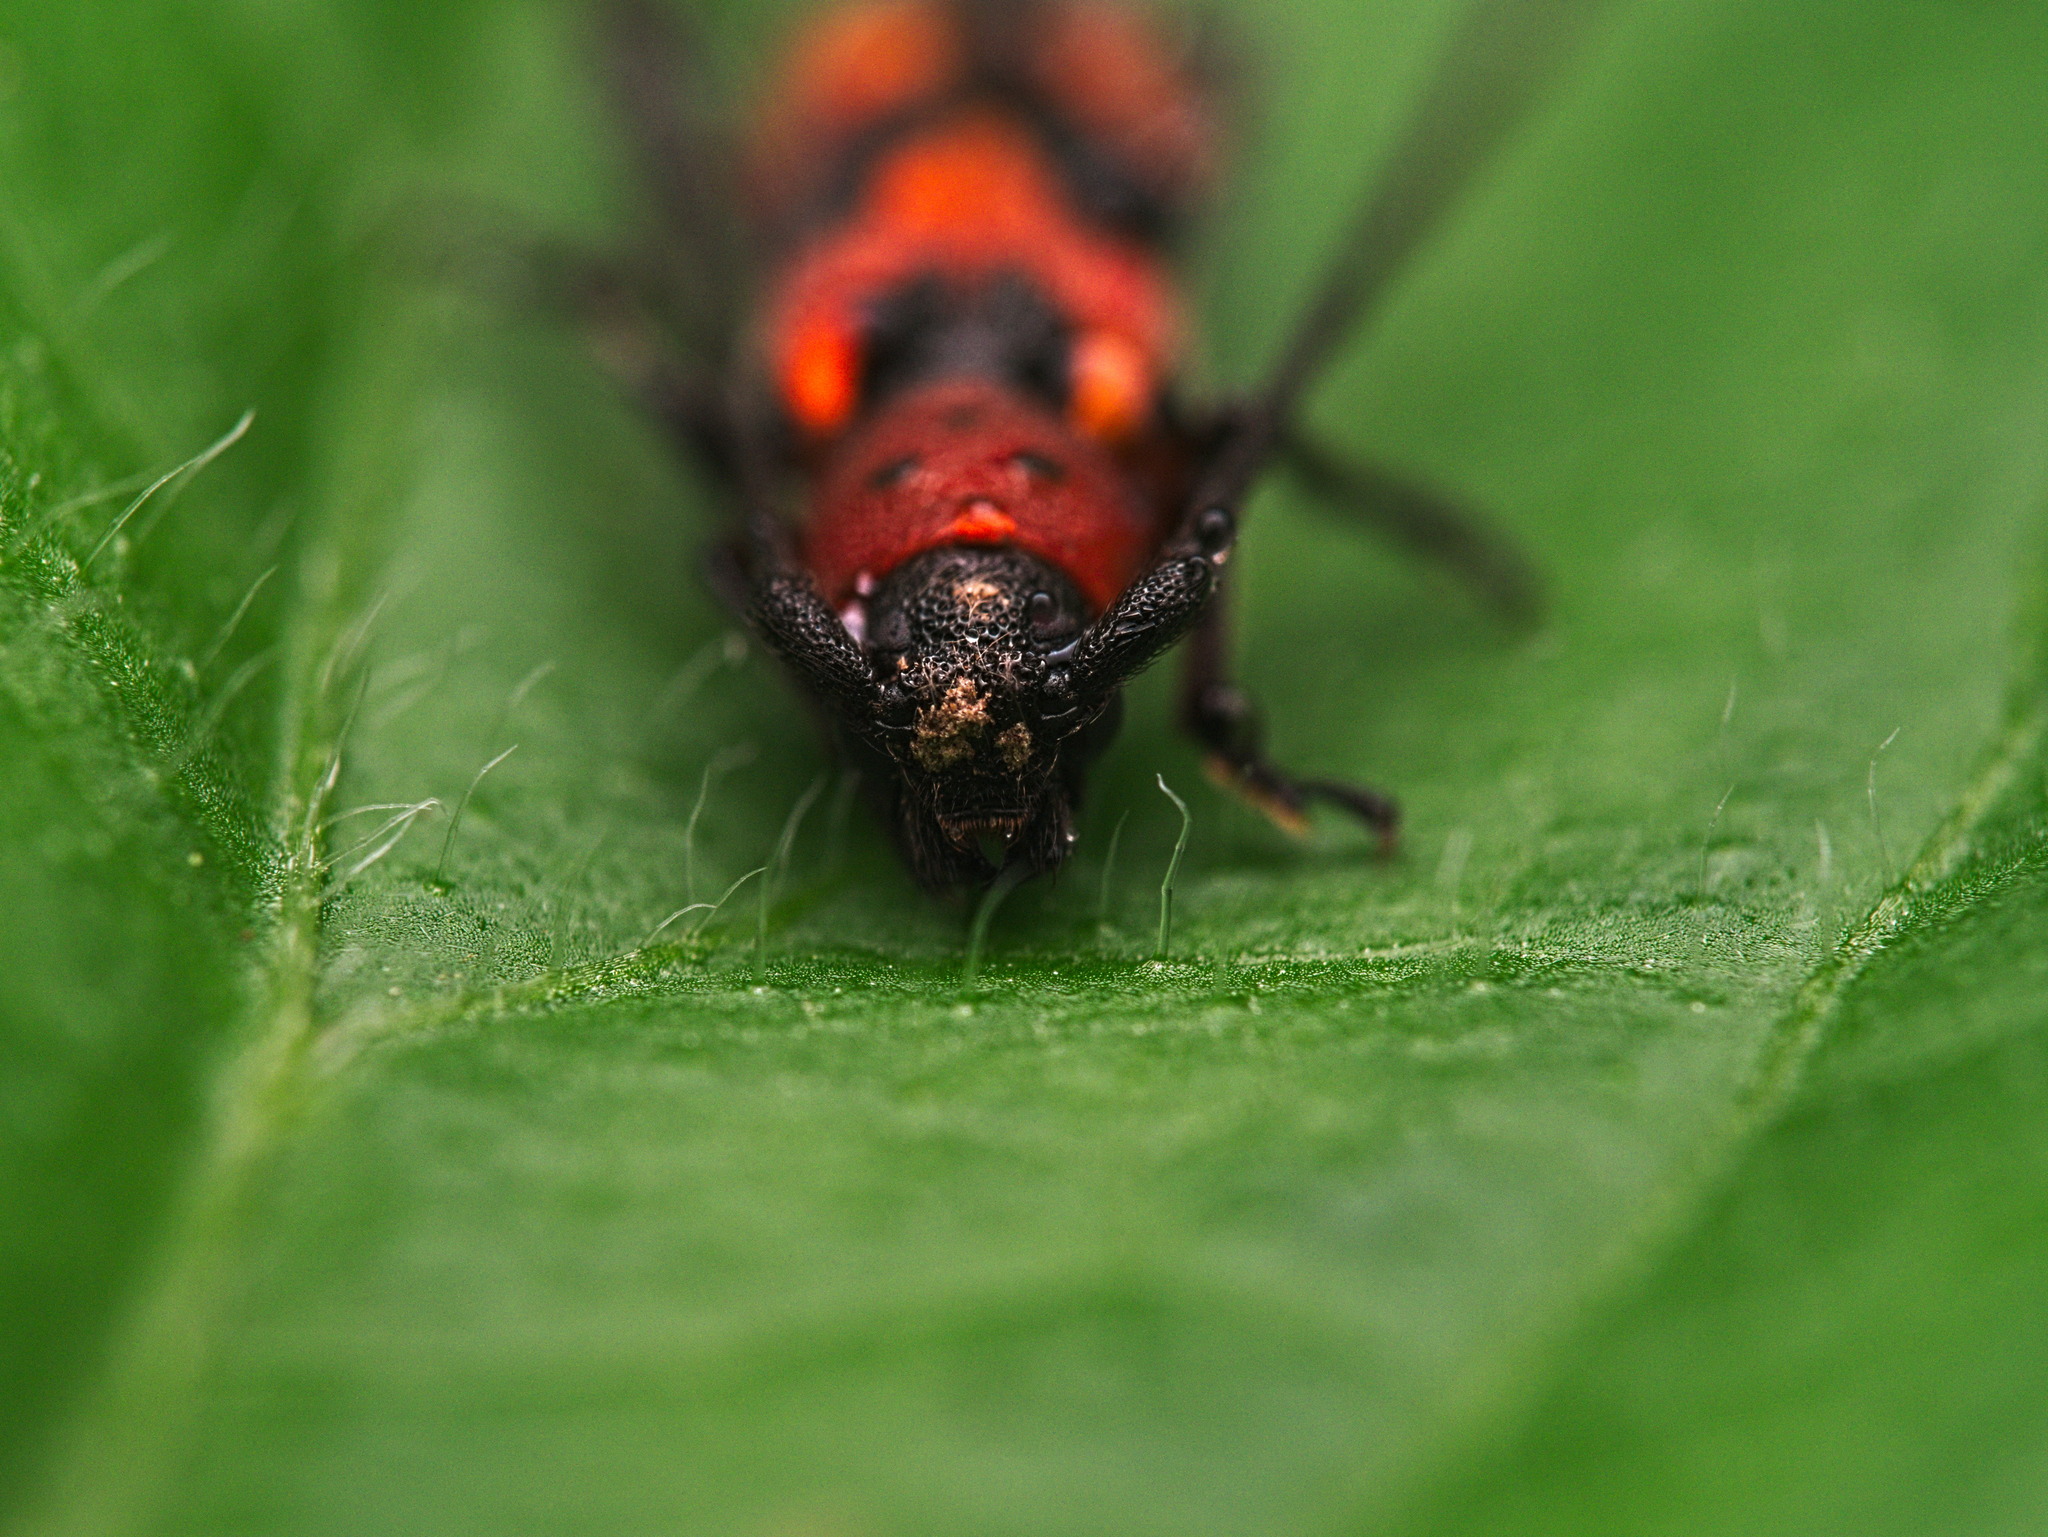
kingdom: Animalia
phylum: Arthropoda
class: Insecta
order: Coleoptera
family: Cerambycidae
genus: Tylosis
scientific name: Tylosis puncticollis
